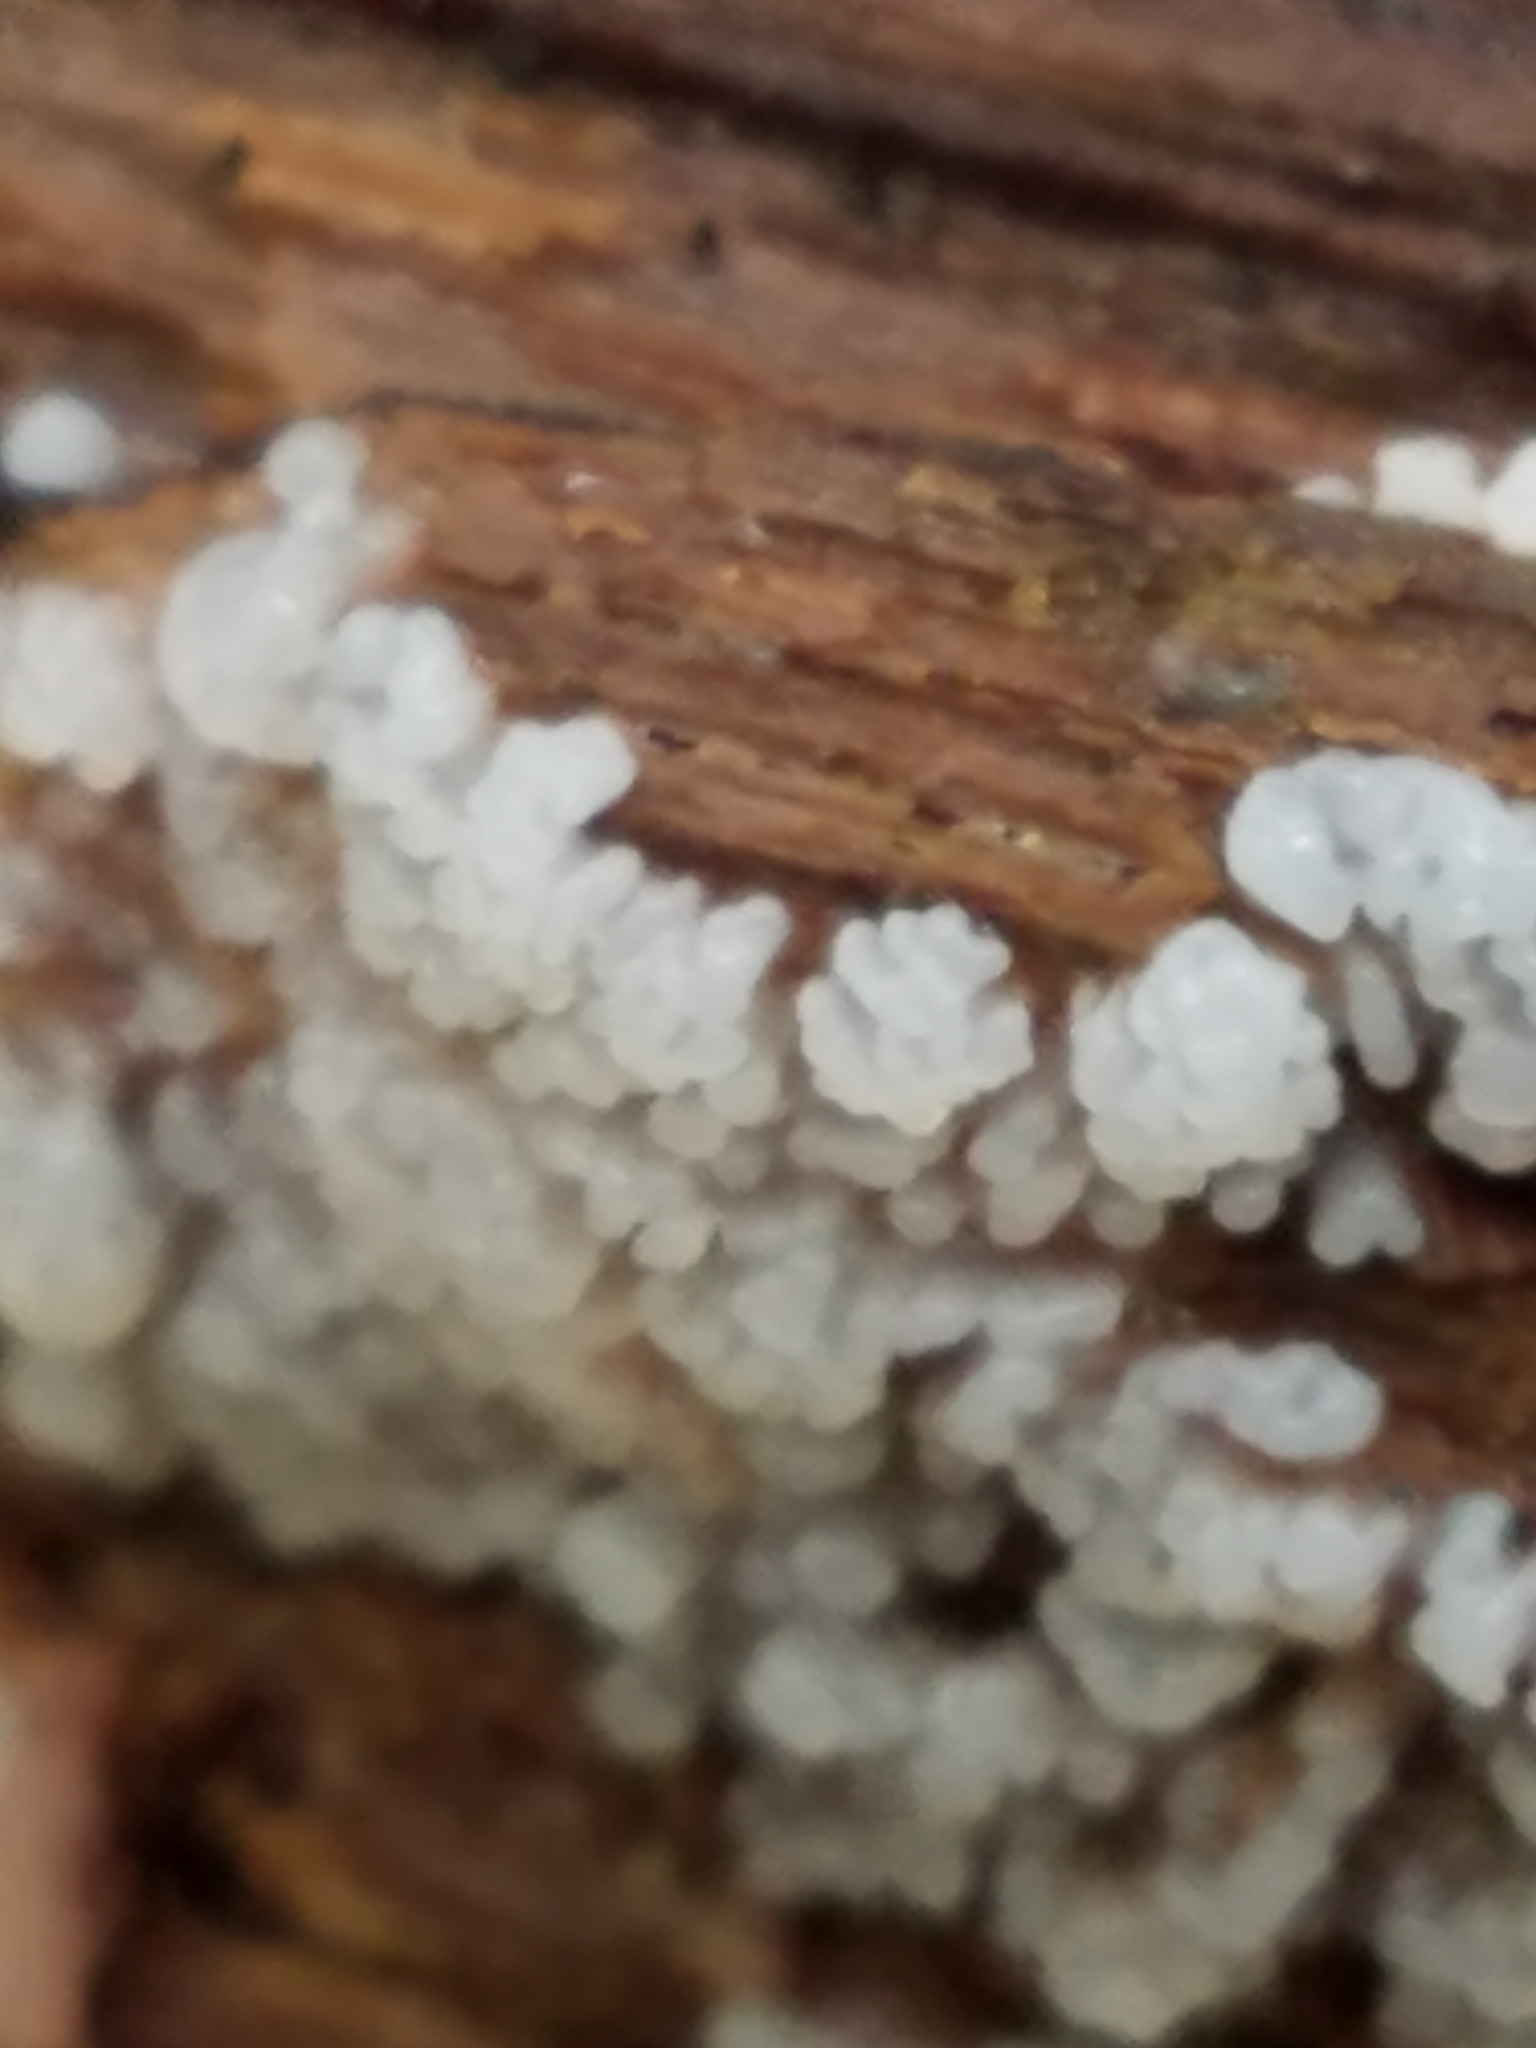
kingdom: Protozoa
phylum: Mycetozoa
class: Protosteliomycetes
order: Ceratiomyxales
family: Ceratiomyxaceae
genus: Ceratiomyxa
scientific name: Ceratiomyxa fruticulosa
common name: Honeycomb coral slime mold
